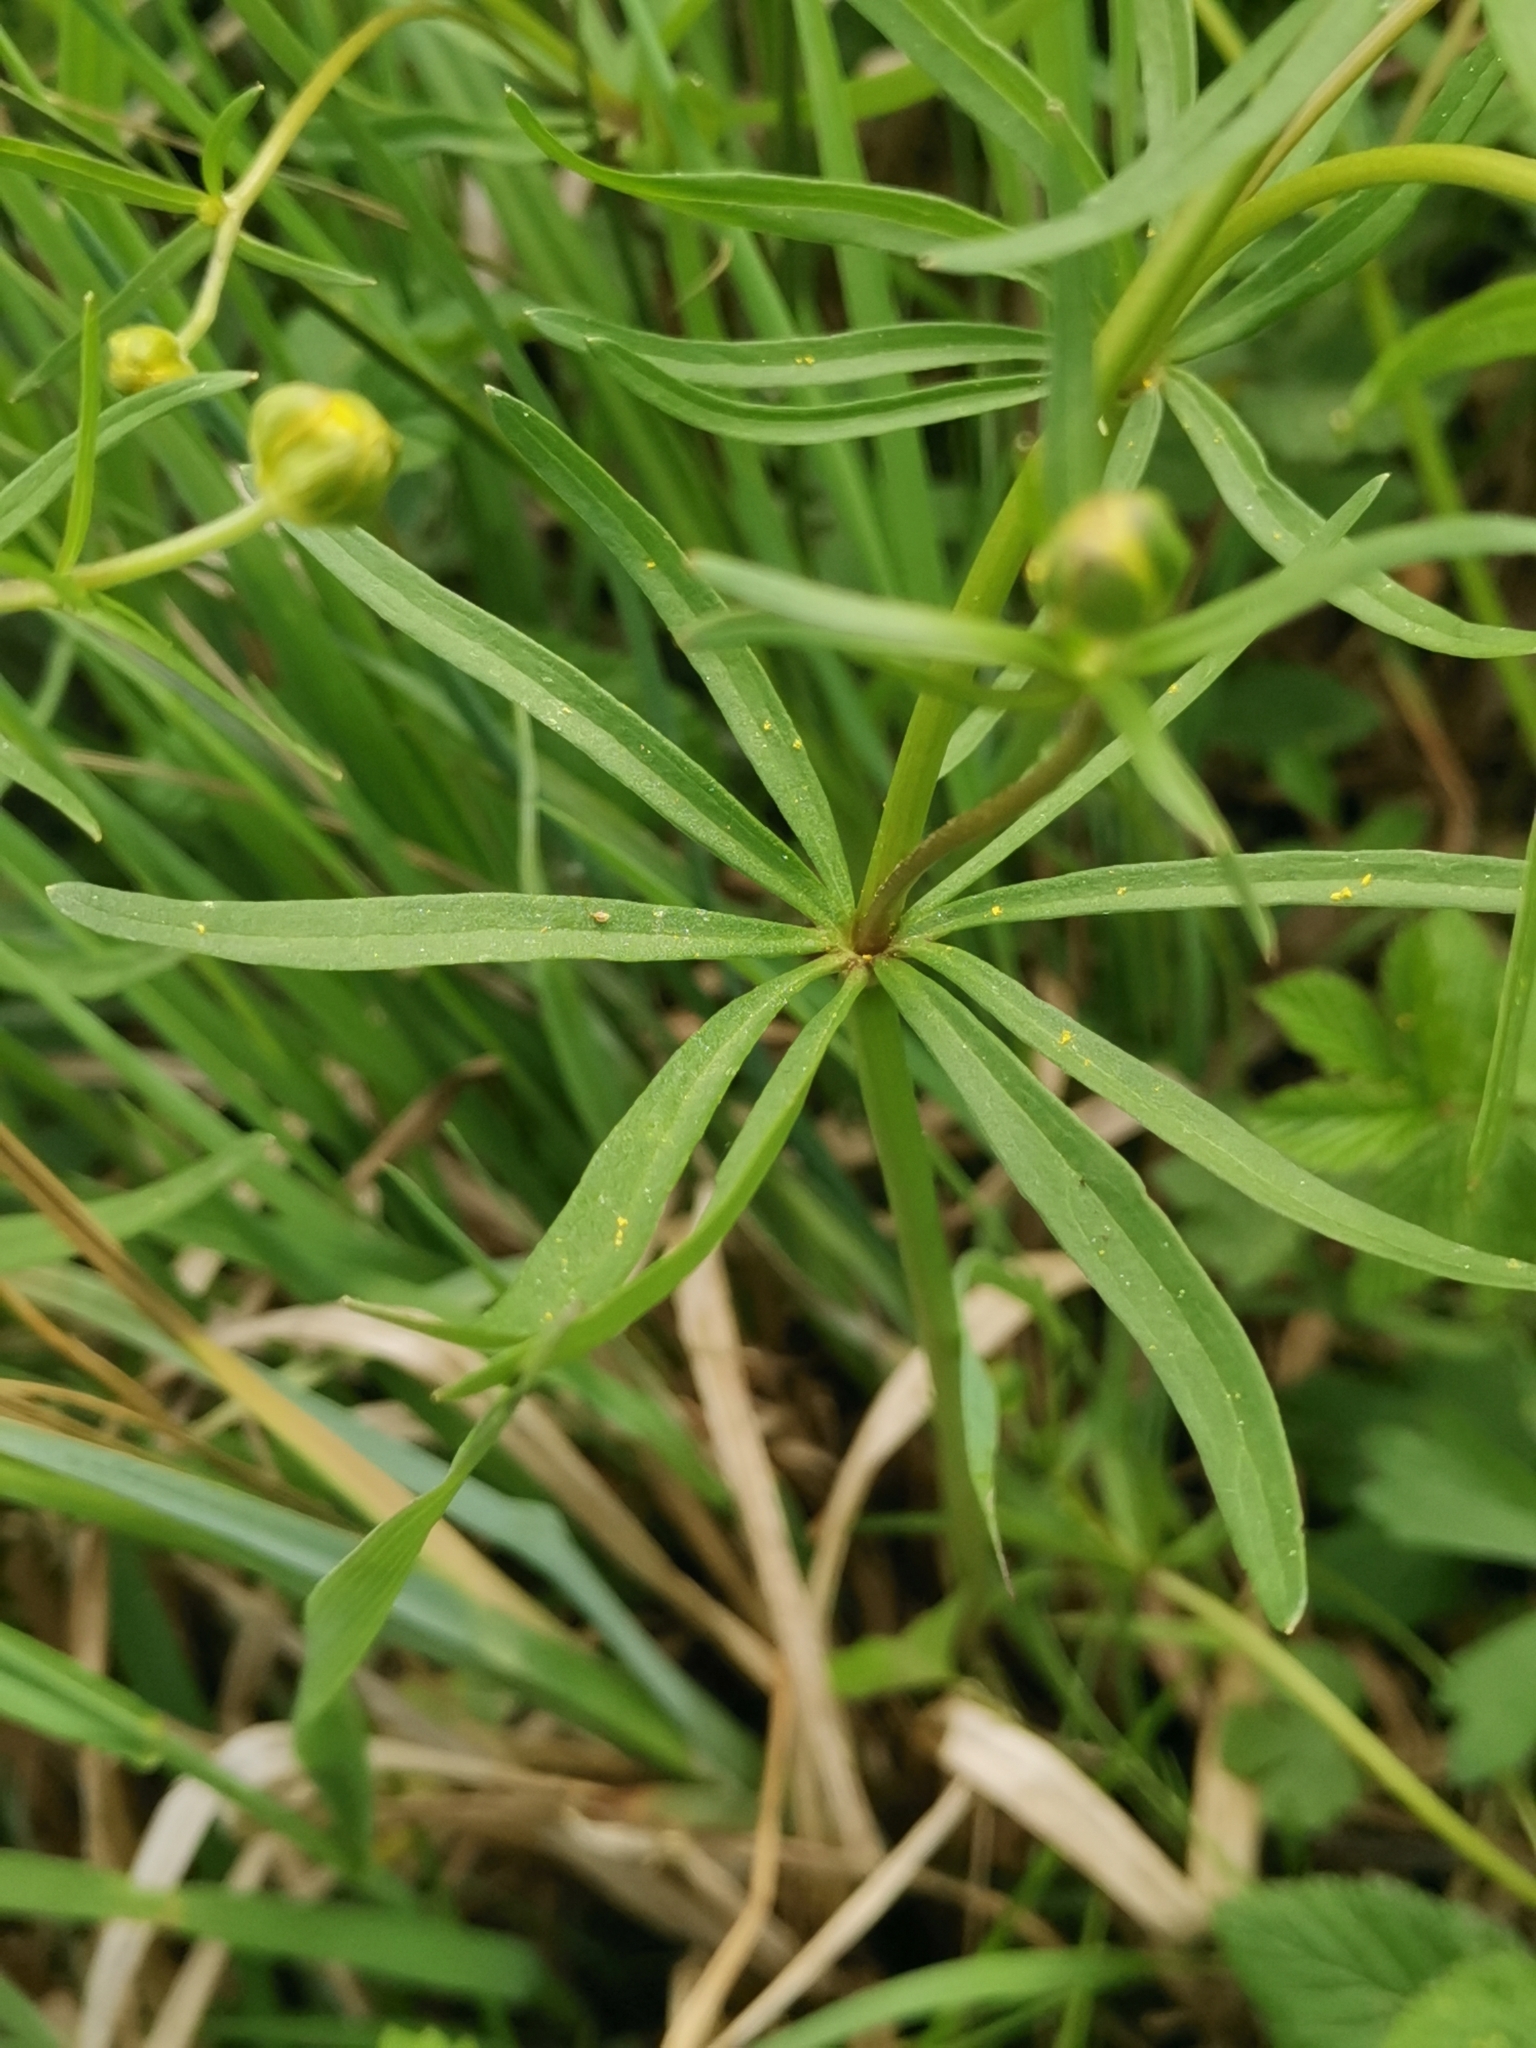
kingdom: Plantae
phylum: Tracheophyta
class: Magnoliopsida
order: Ranunculales
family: Ranunculaceae
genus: Ranunculus
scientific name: Ranunculus auricomus
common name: Goldilocks buttercup
